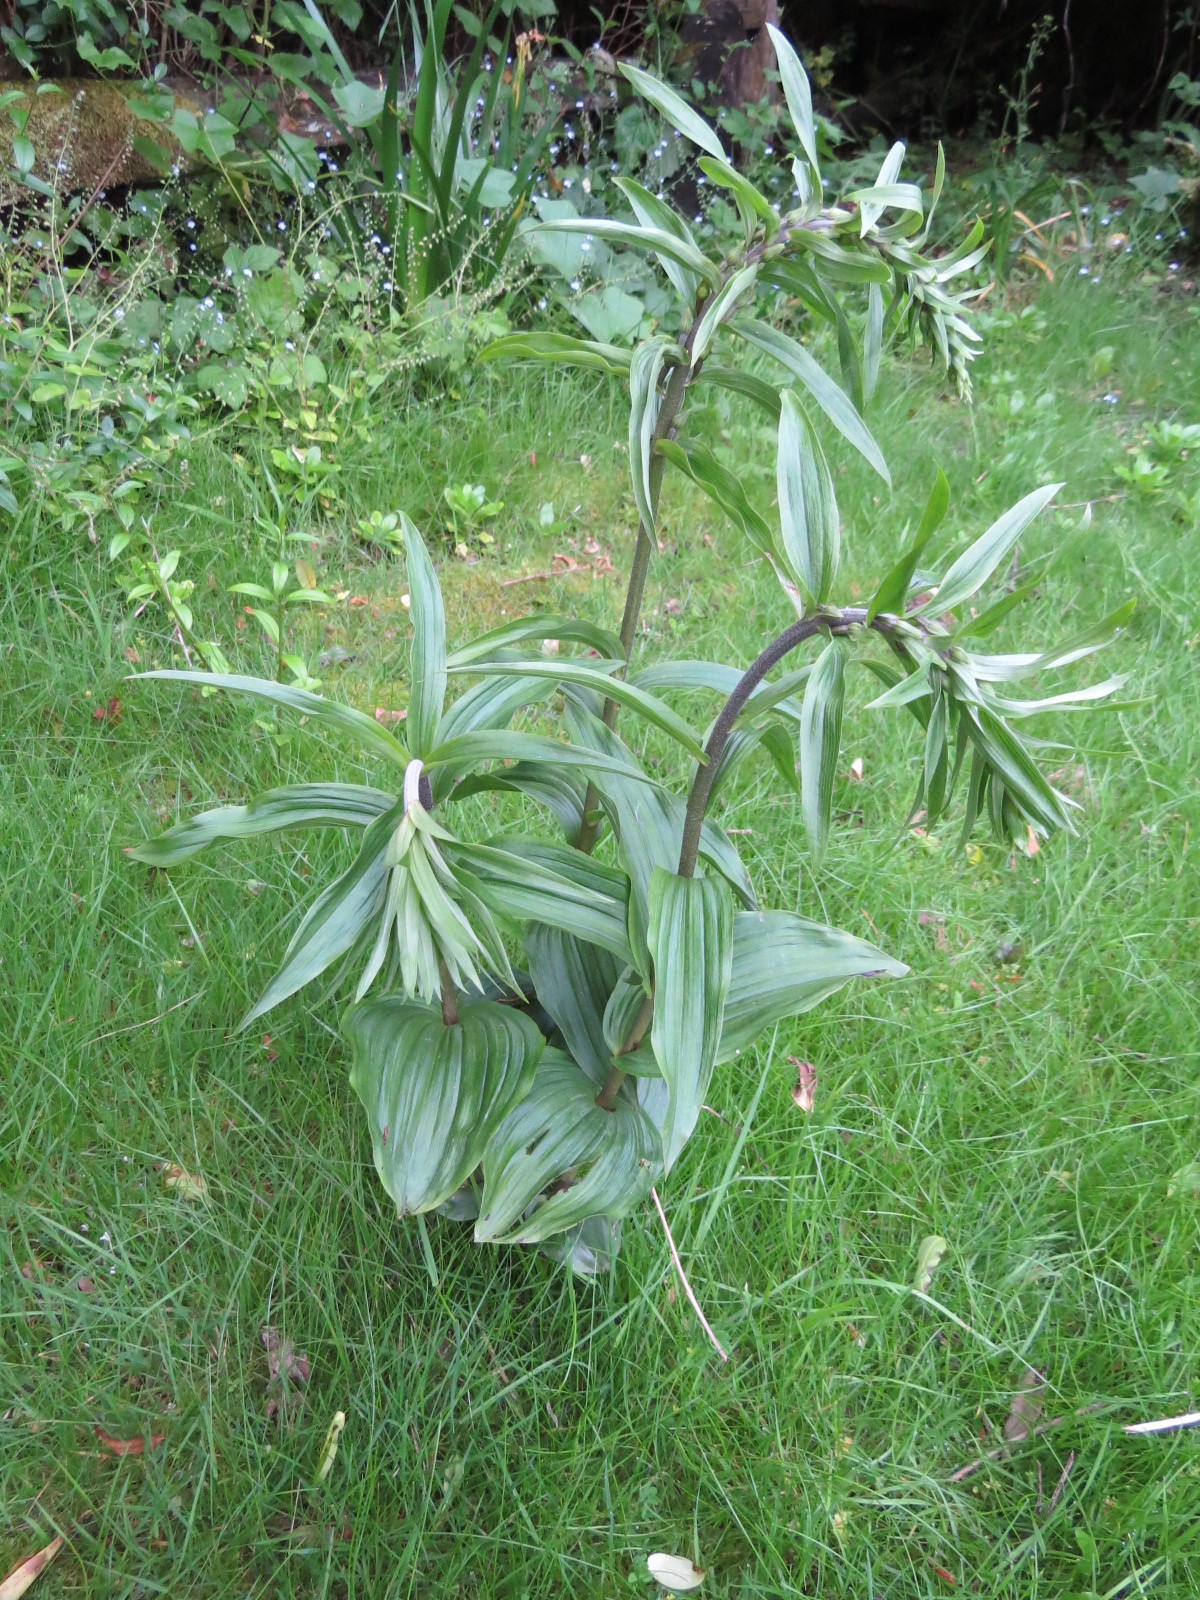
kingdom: Plantae
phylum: Tracheophyta
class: Liliopsida
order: Asparagales
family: Orchidaceae
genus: Epipactis
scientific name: Epipactis helleborine
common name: Broad-leaved helleborine
